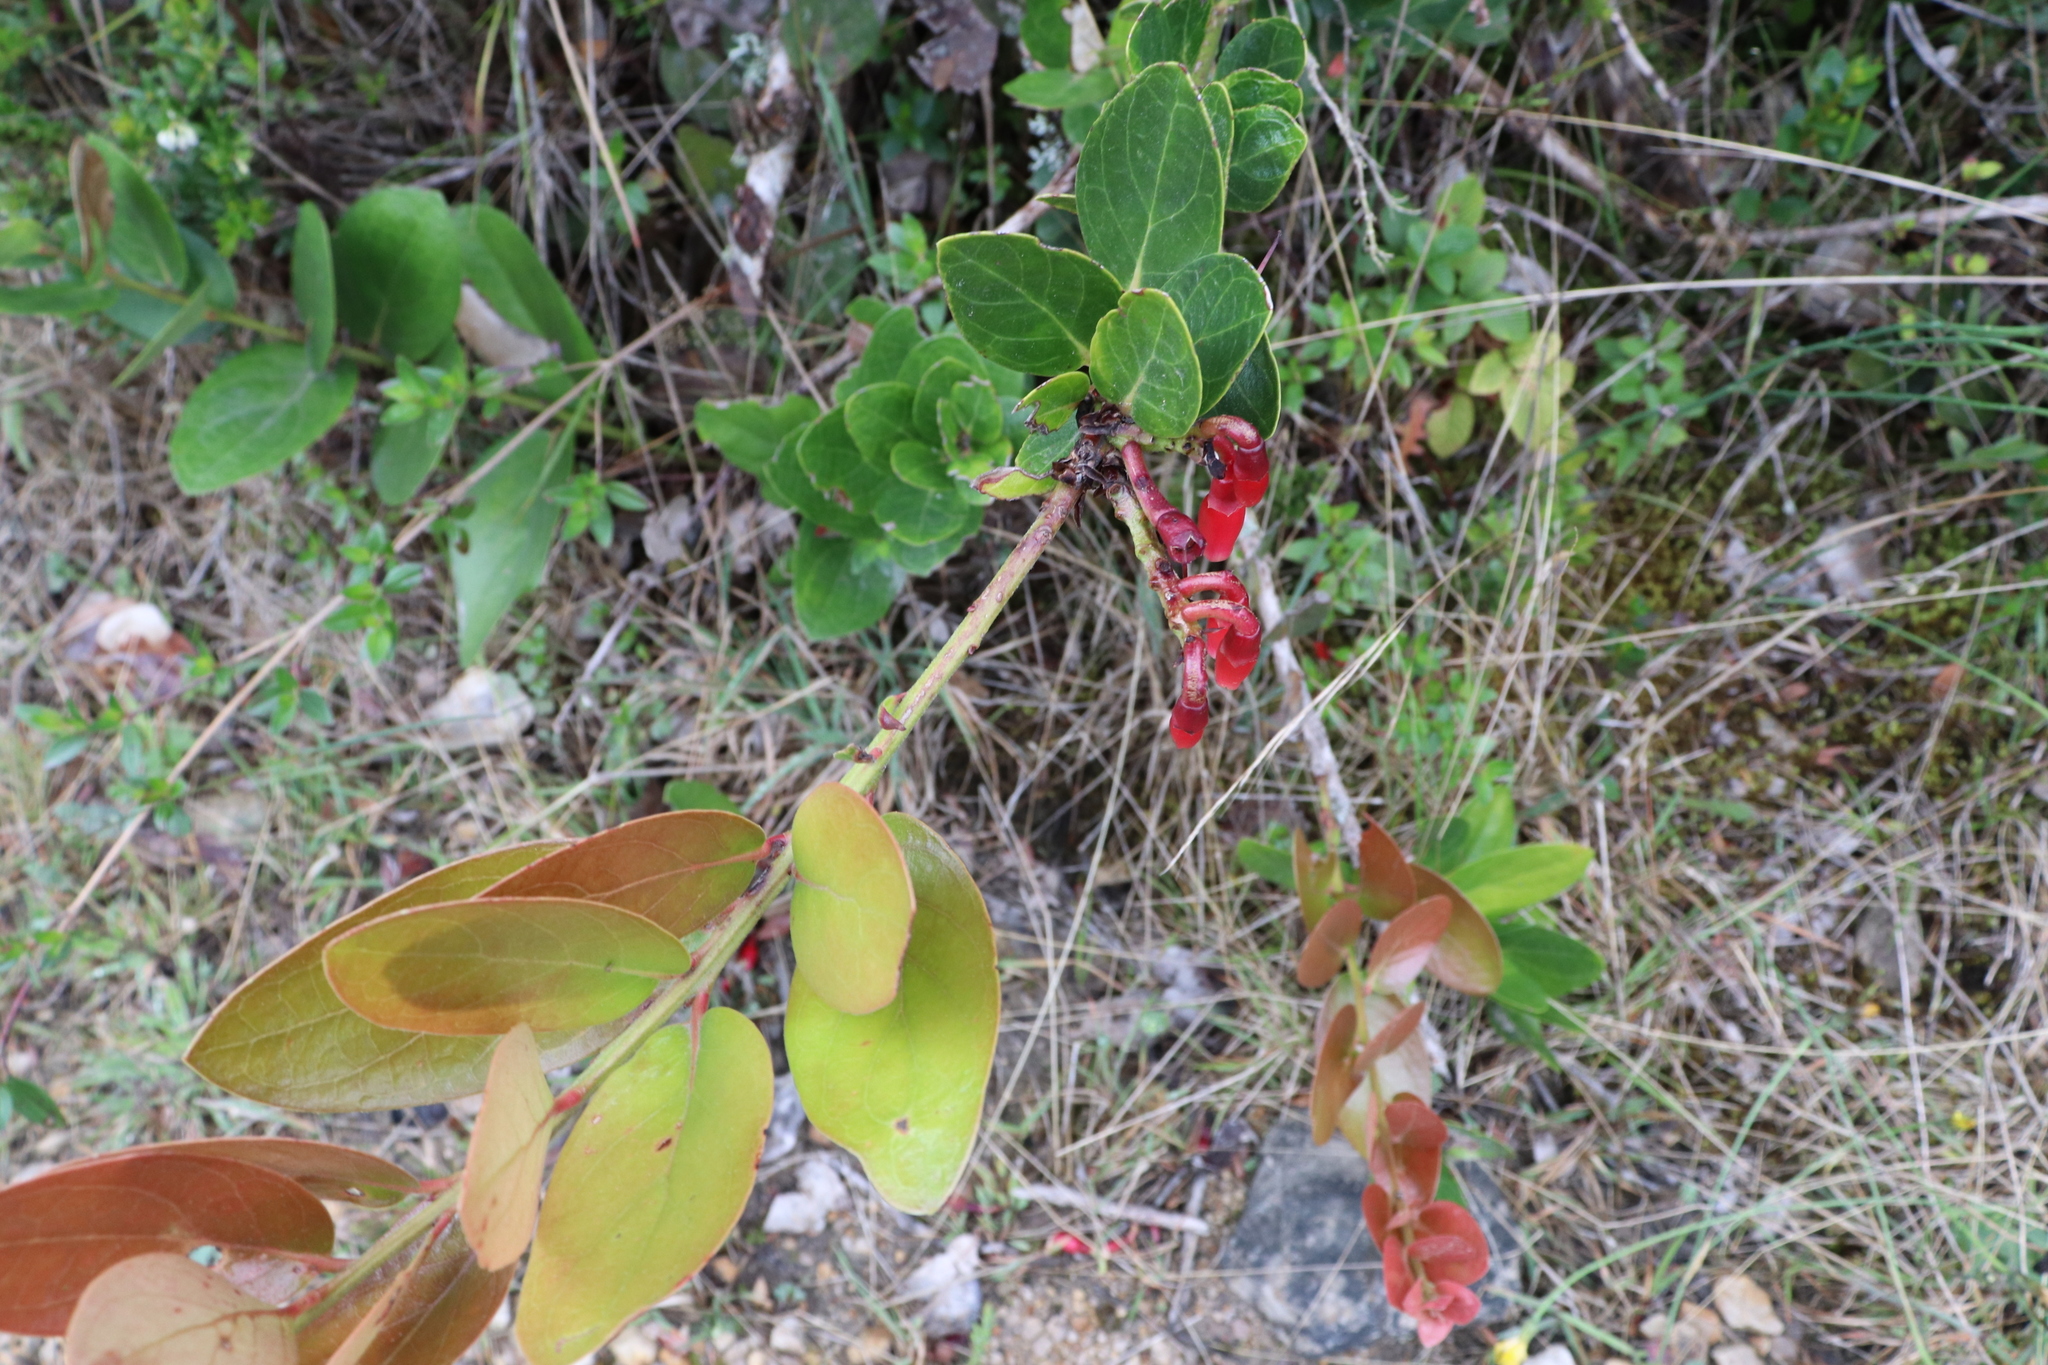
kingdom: Plantae
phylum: Tracheophyta
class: Magnoliopsida
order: Ericales
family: Ericaceae
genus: Macleania
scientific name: Macleania rupestris
